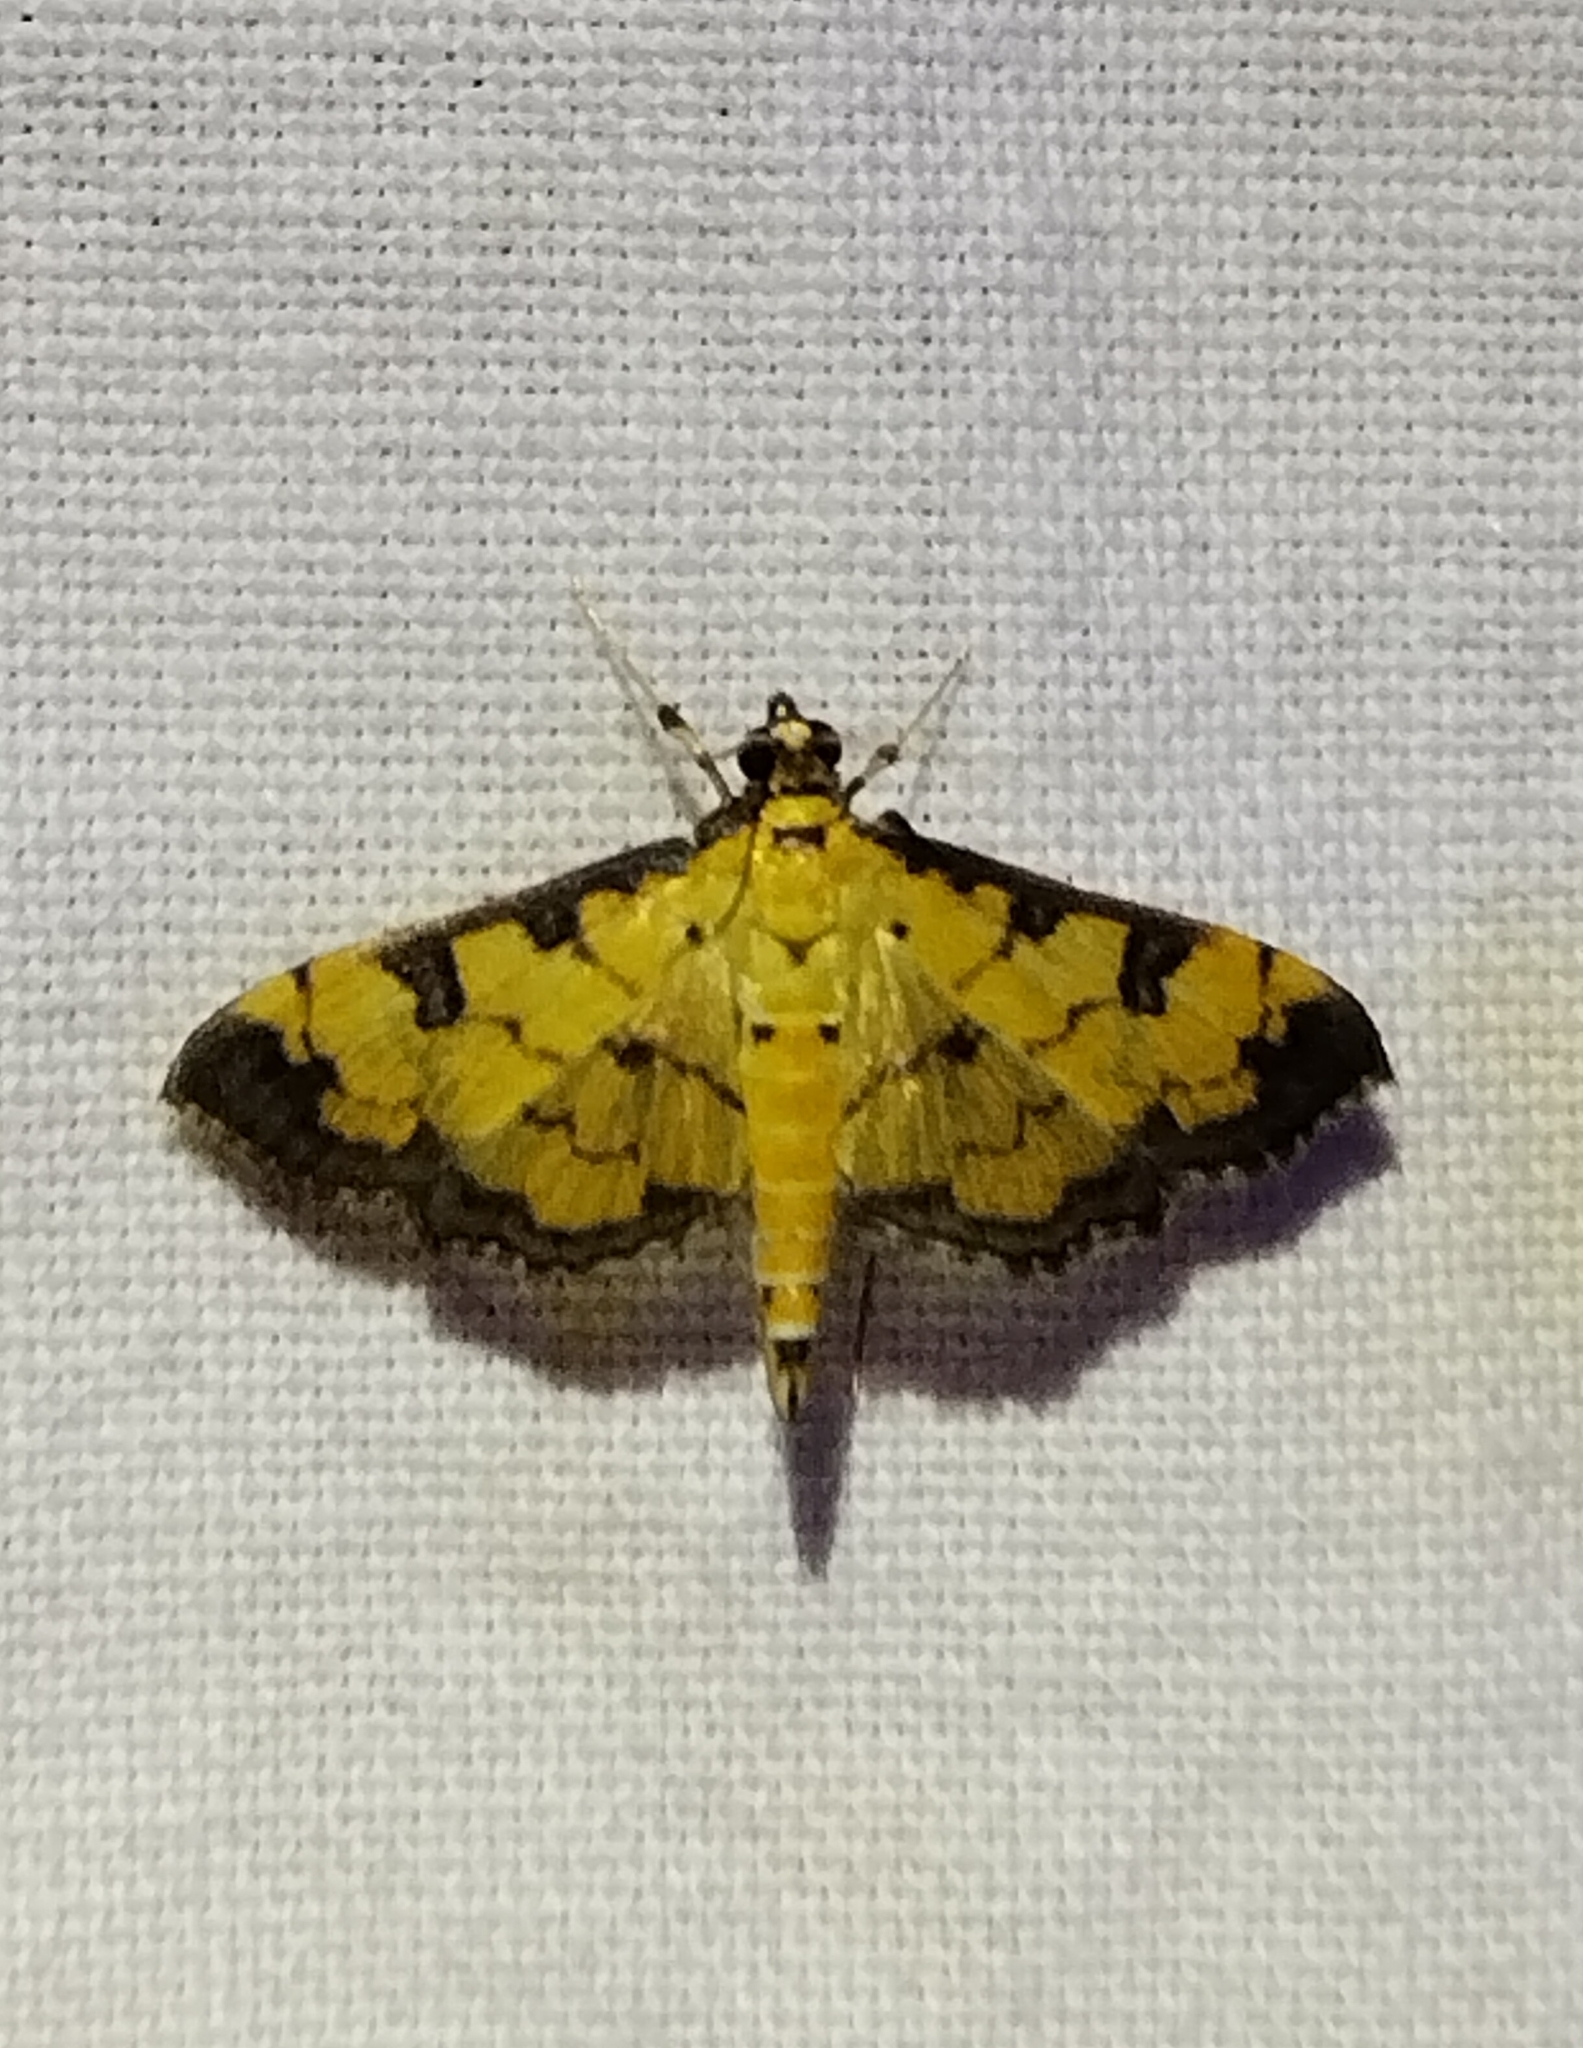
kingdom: Animalia
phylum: Arthropoda
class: Insecta
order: Lepidoptera
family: Crambidae
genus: Ategumia
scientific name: Ategumia ebulealis
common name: Moth
